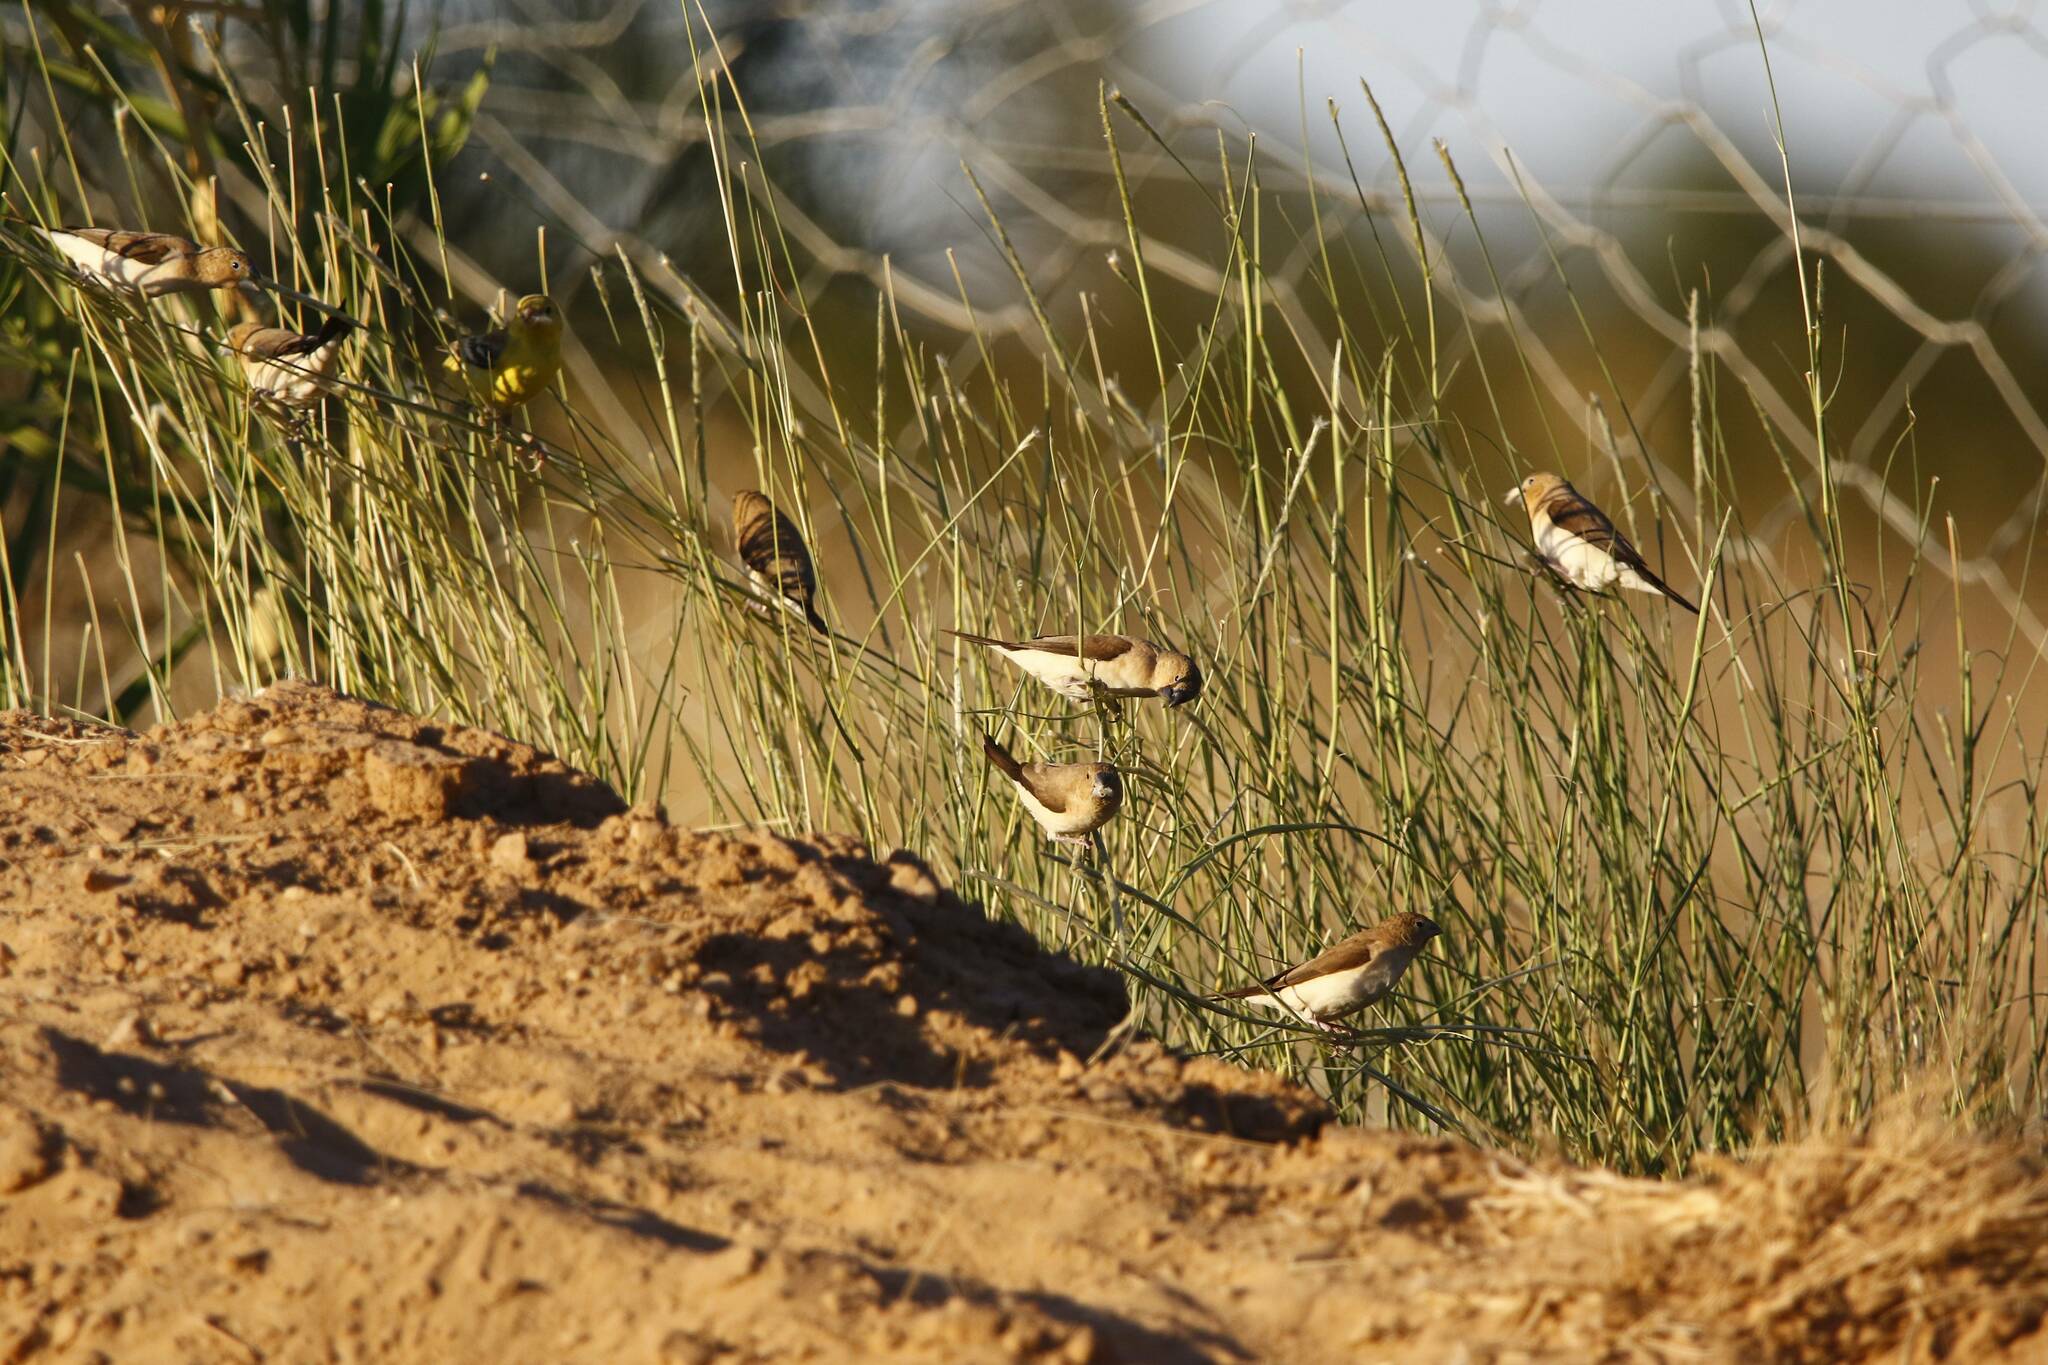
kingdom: Animalia
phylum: Chordata
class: Aves
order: Passeriformes
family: Estrildidae
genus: Euodice
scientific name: Euodice cantans
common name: African silverbill
